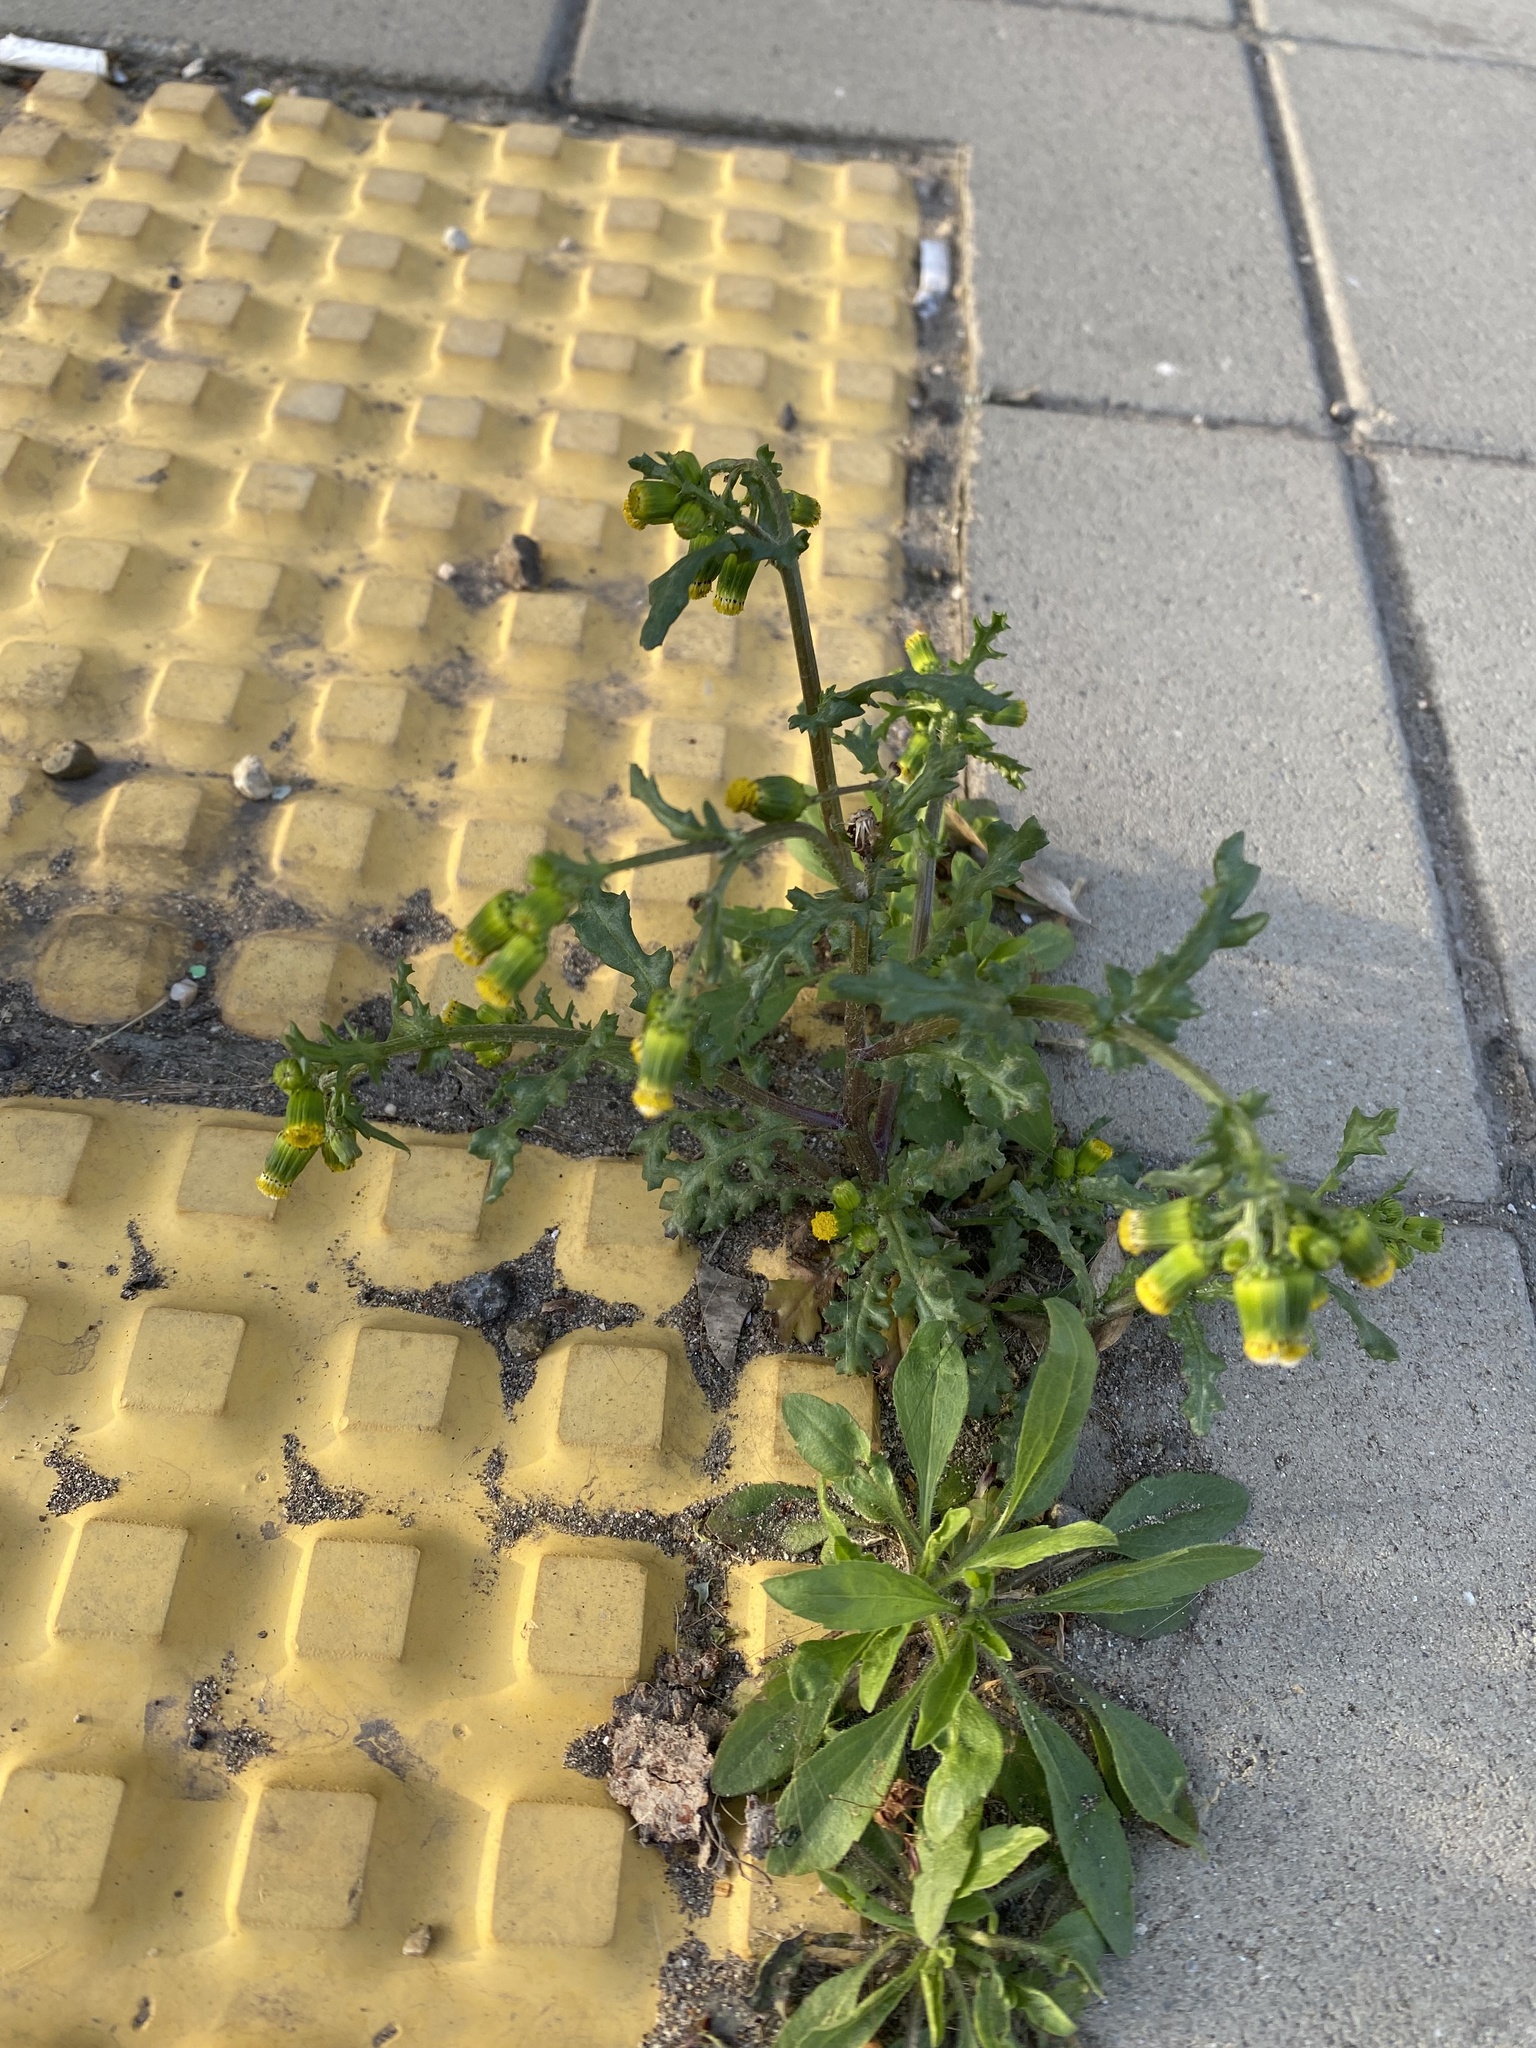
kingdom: Plantae
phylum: Tracheophyta
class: Magnoliopsida
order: Asterales
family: Asteraceae
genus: Senecio
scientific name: Senecio vulgaris
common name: Old-man-in-the-spring
